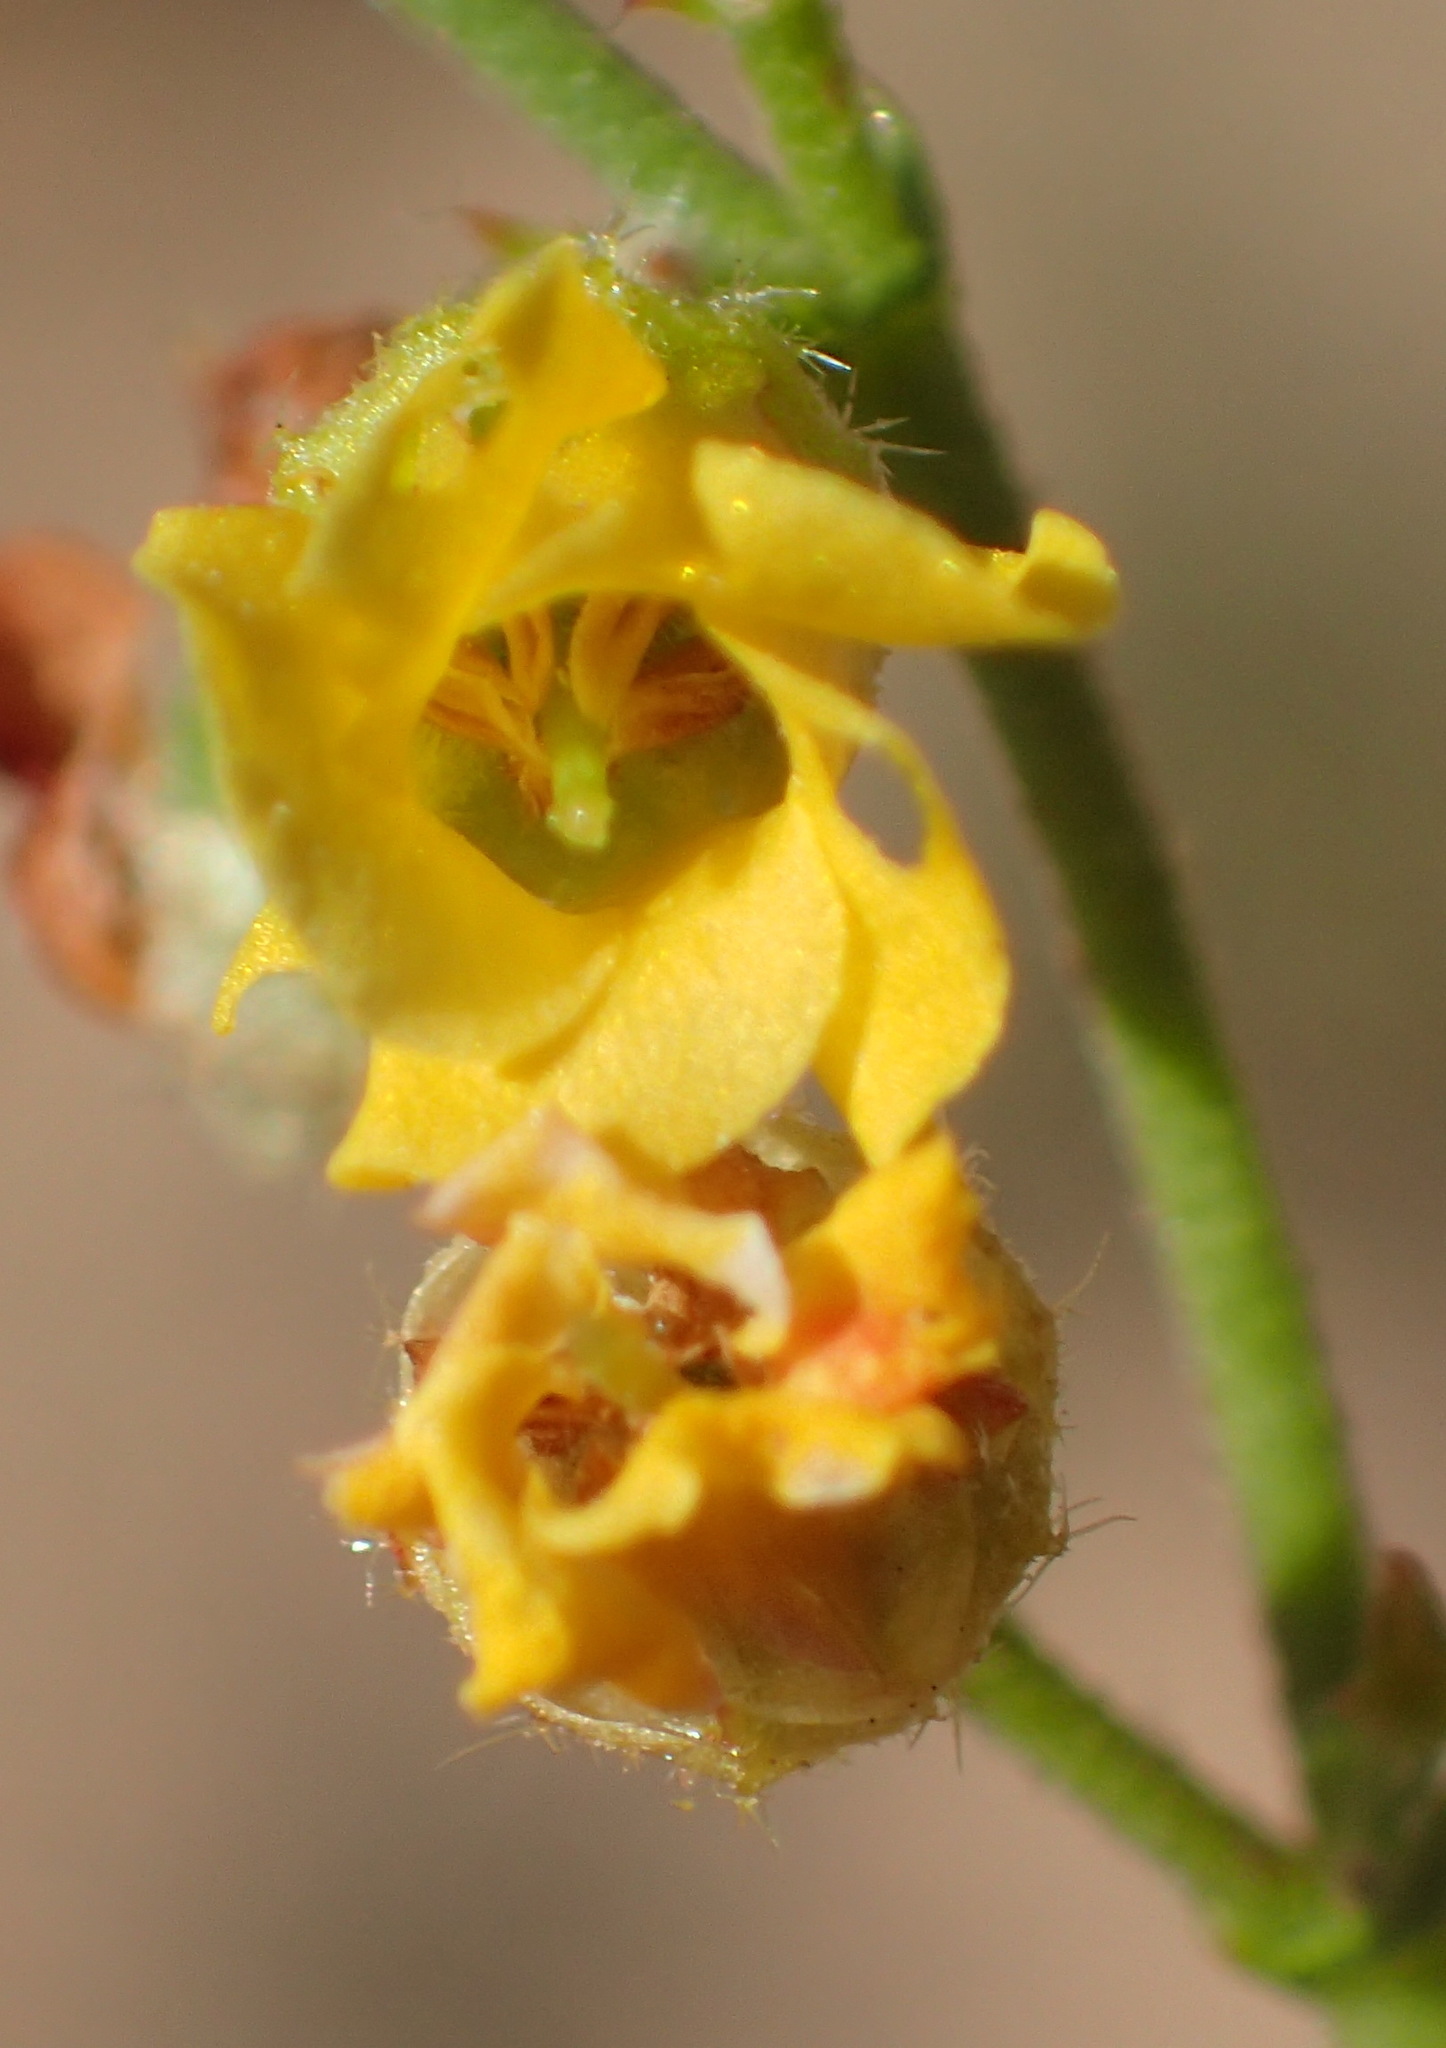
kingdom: Plantae
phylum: Tracheophyta
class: Magnoliopsida
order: Malvales
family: Malvaceae
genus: Hermannia
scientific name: Hermannia alnifolia
